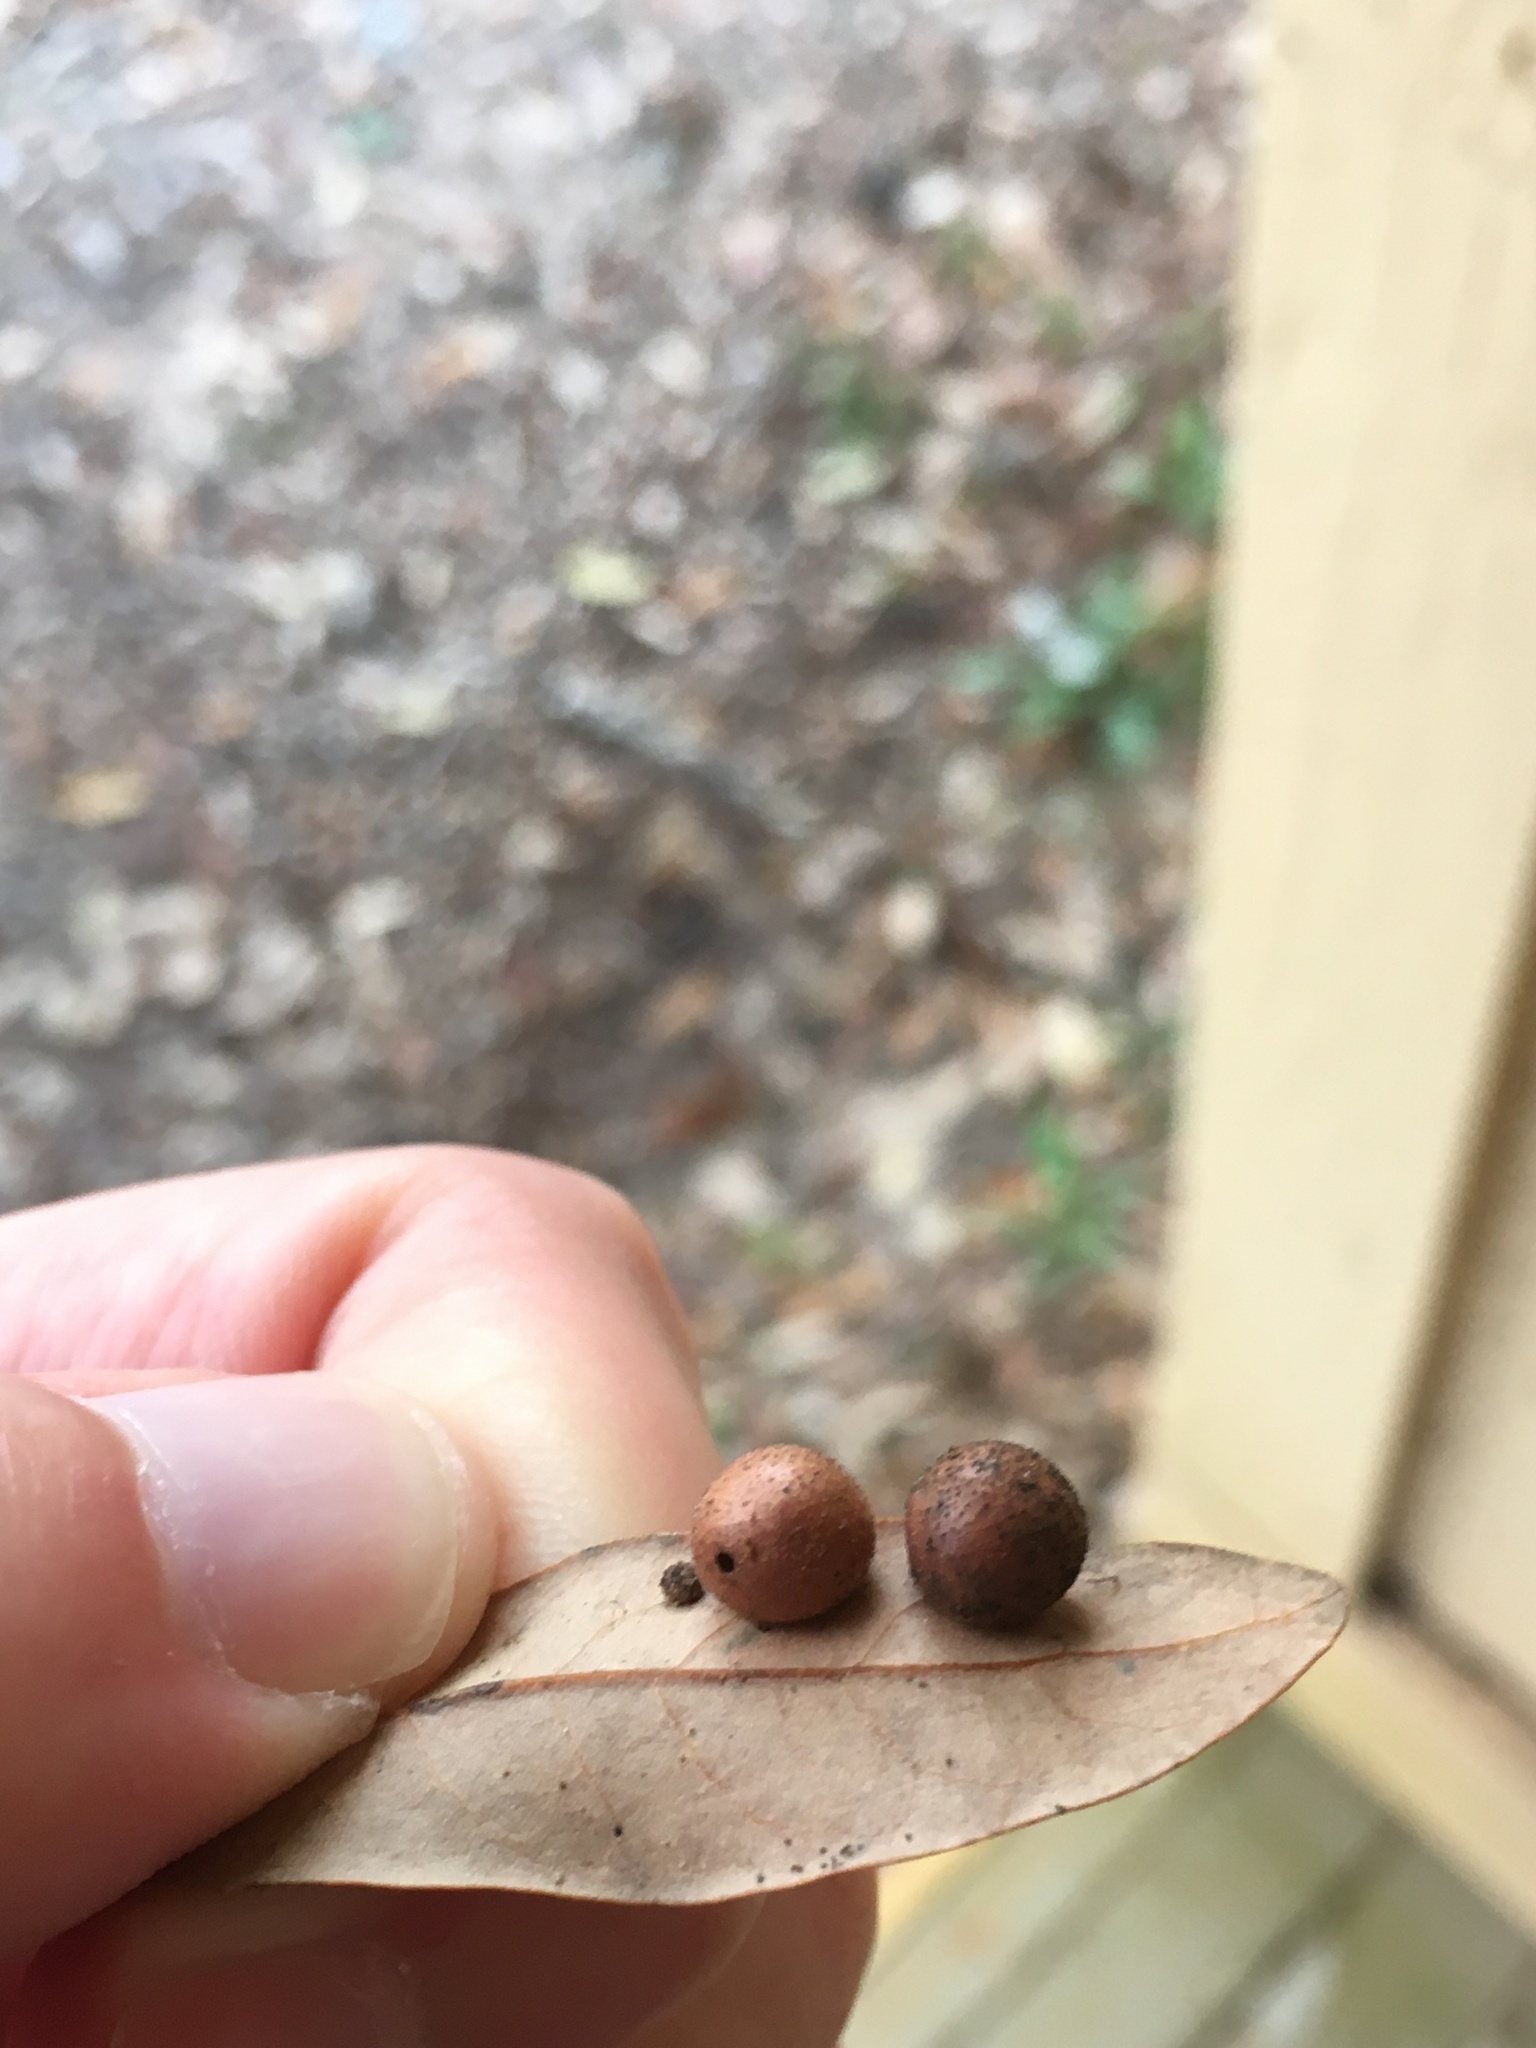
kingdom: Animalia
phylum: Arthropoda
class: Insecta
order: Hymenoptera
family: Cynipidae
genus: Belonocnema
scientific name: Belonocnema treatae
